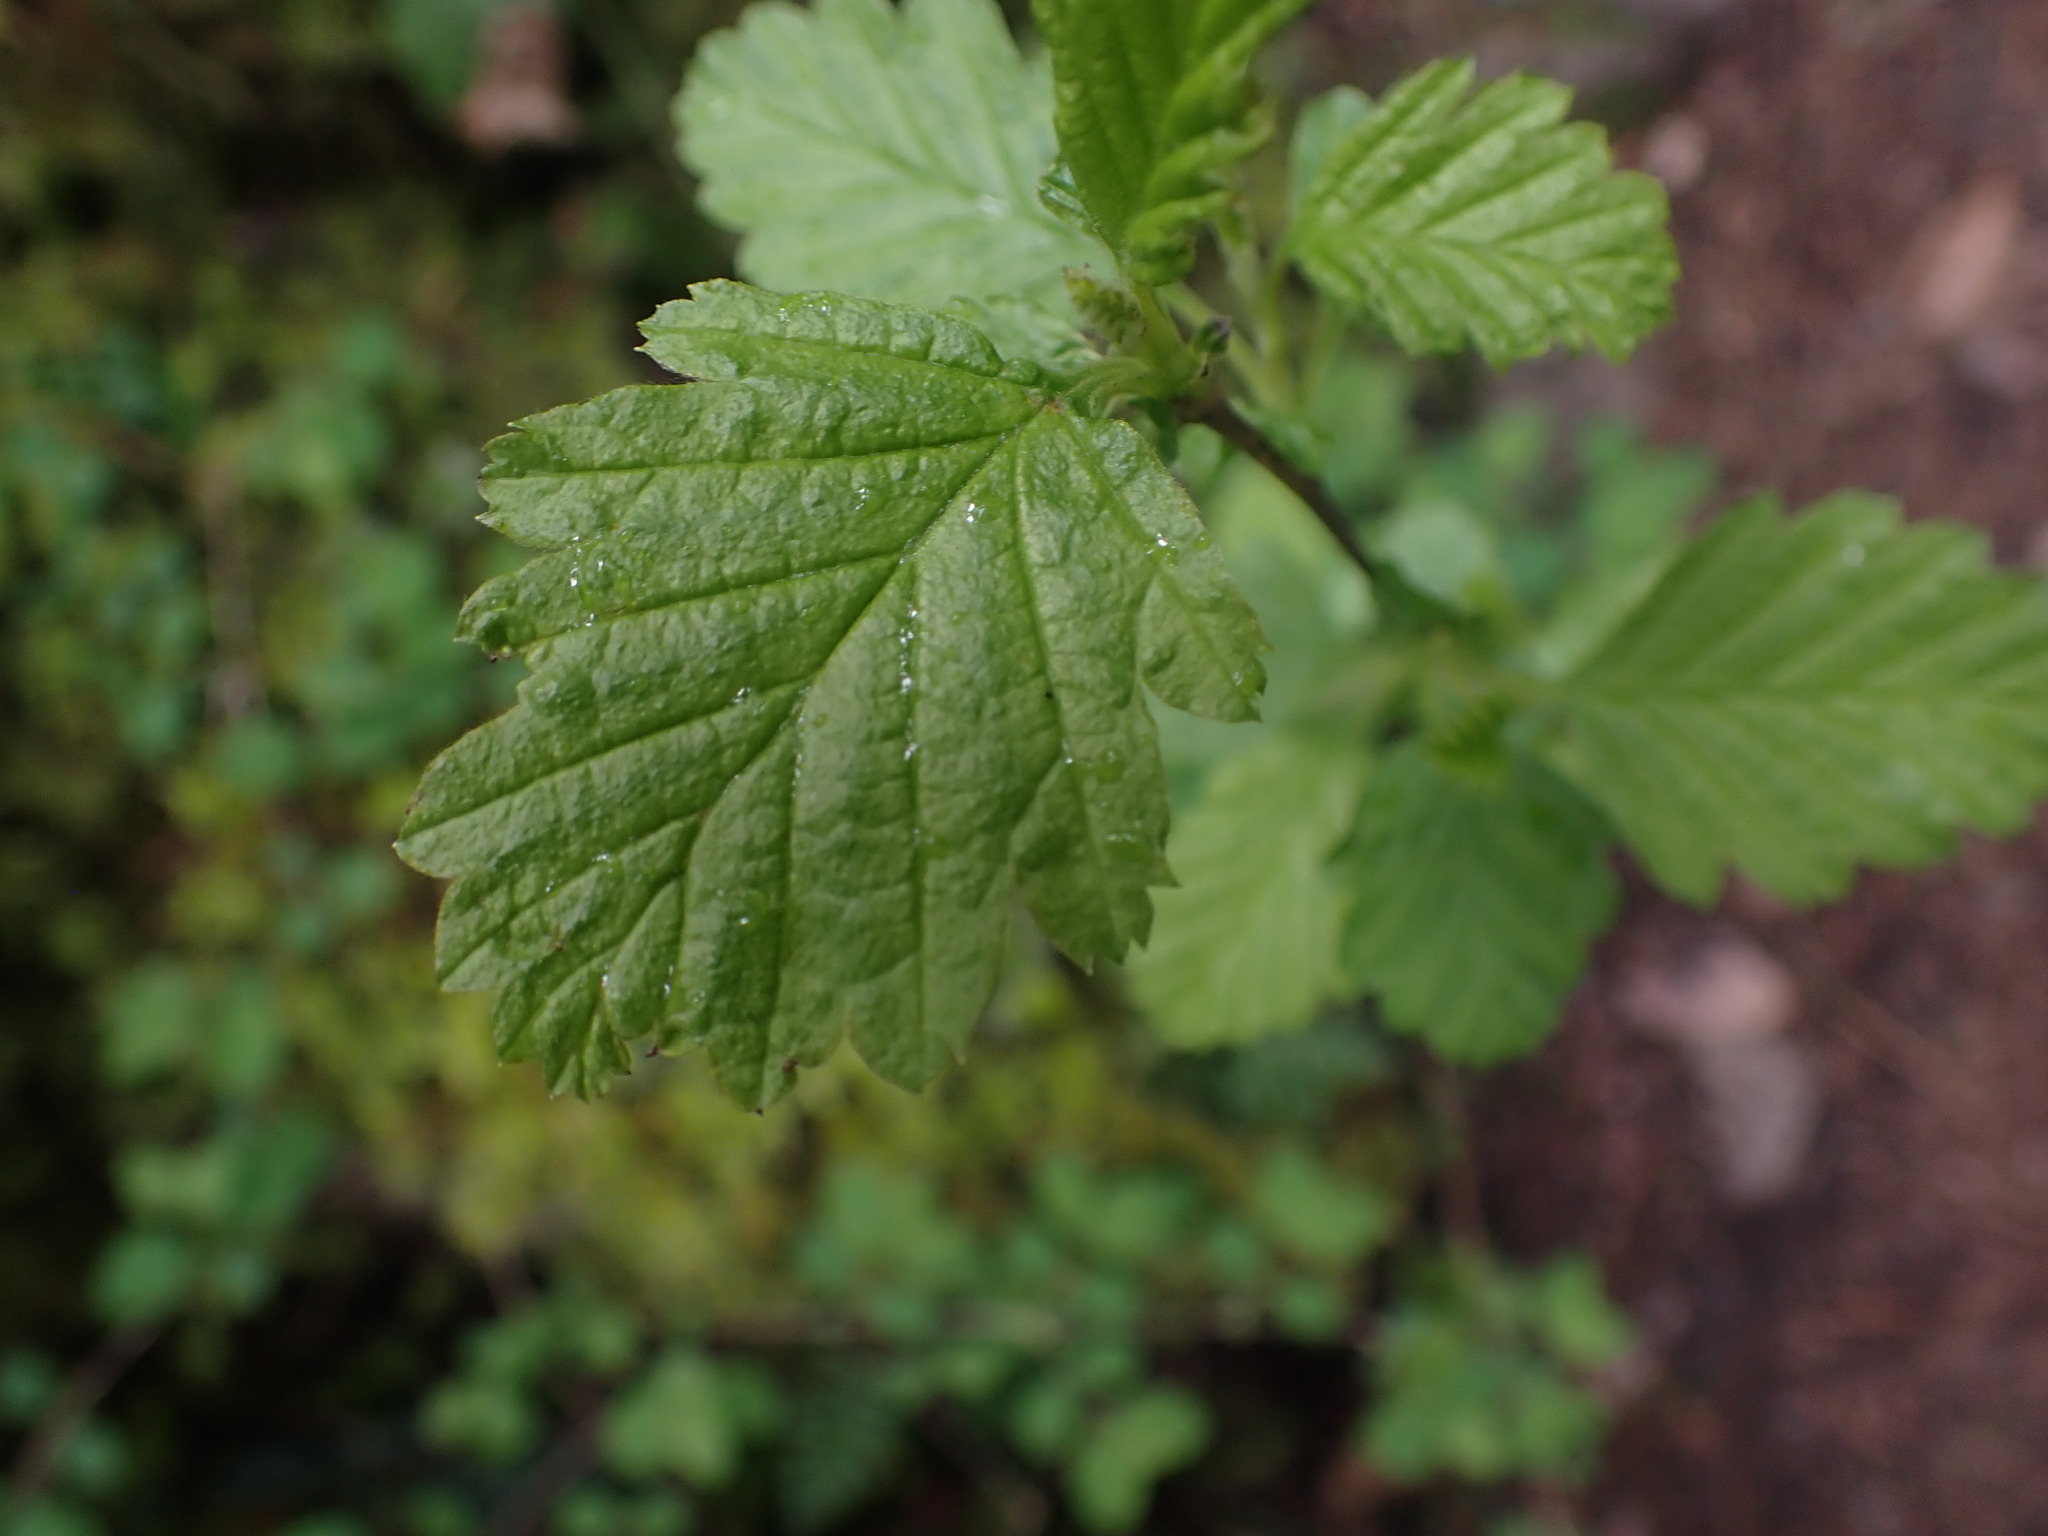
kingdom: Plantae
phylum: Tracheophyta
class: Magnoliopsida
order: Rosales
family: Rosaceae
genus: Holodiscus
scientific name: Holodiscus discolor
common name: Oceanspray
